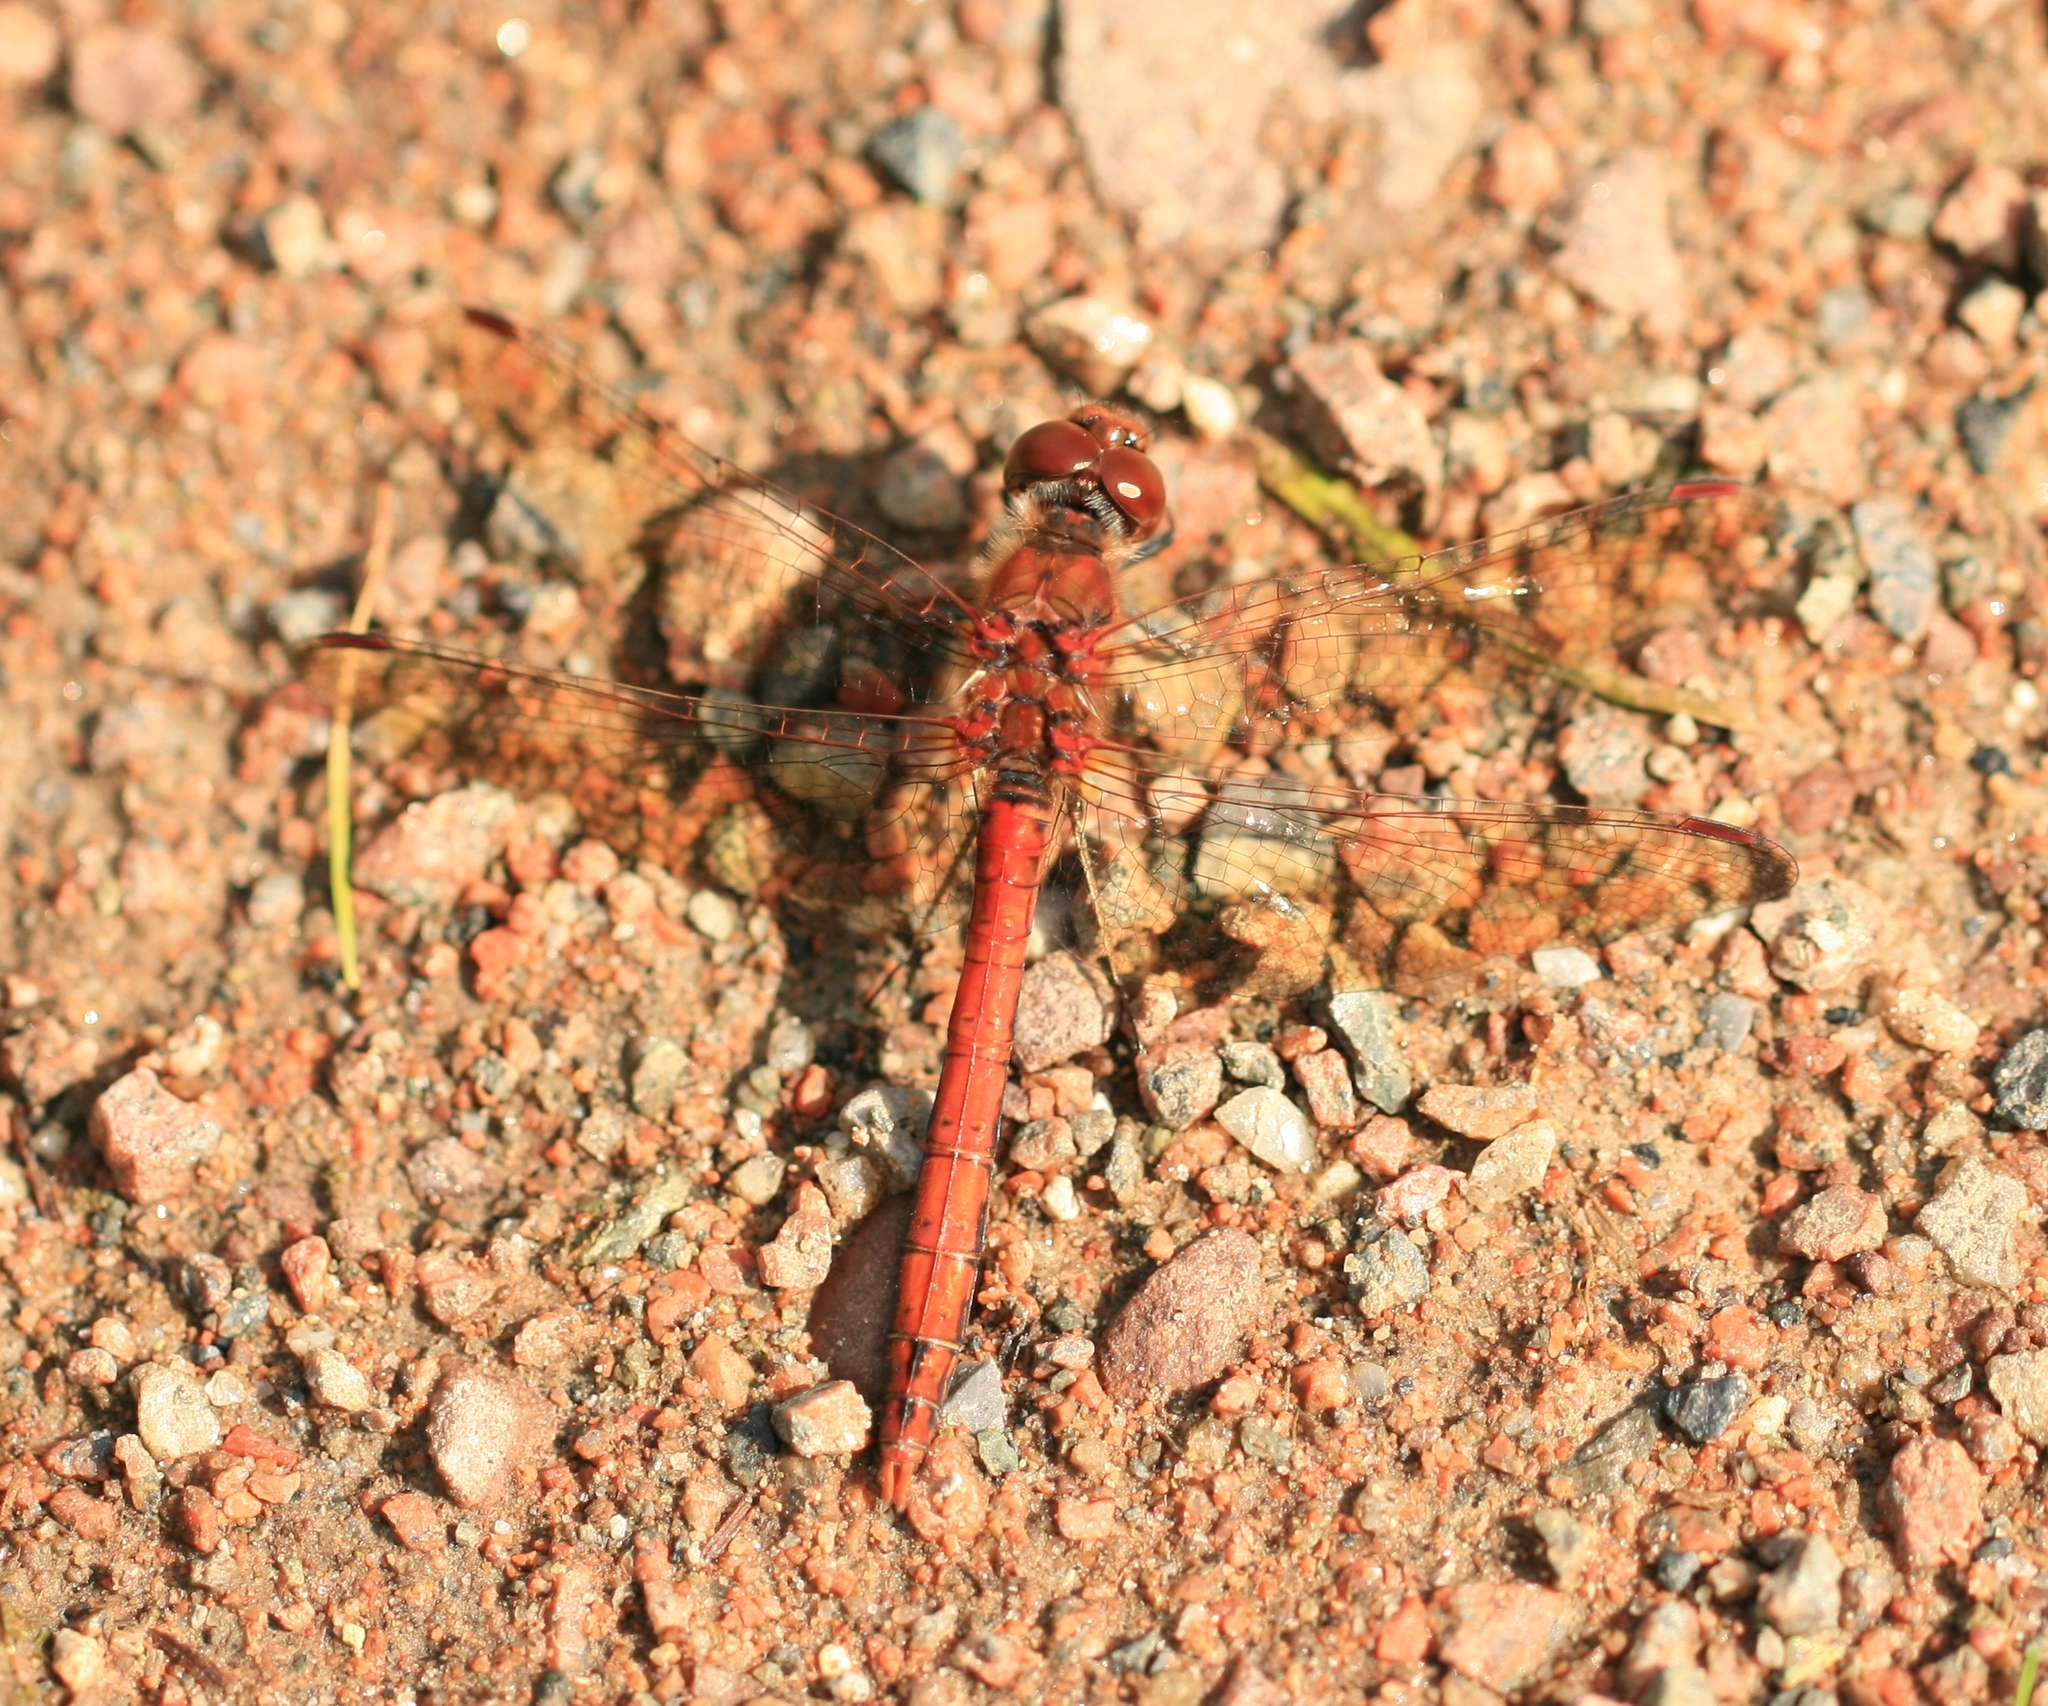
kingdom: Animalia
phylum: Arthropoda
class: Insecta
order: Odonata
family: Libellulidae
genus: Sympetrum
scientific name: Sympetrum striolatum
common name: Common darter
